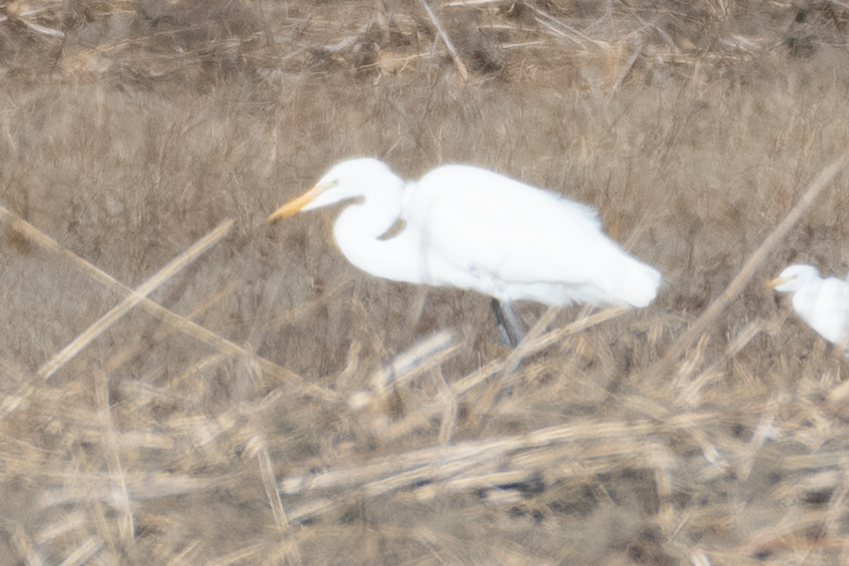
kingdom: Animalia
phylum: Chordata
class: Aves
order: Pelecaniformes
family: Ardeidae
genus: Ardea
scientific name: Ardea alba
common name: Great egret
